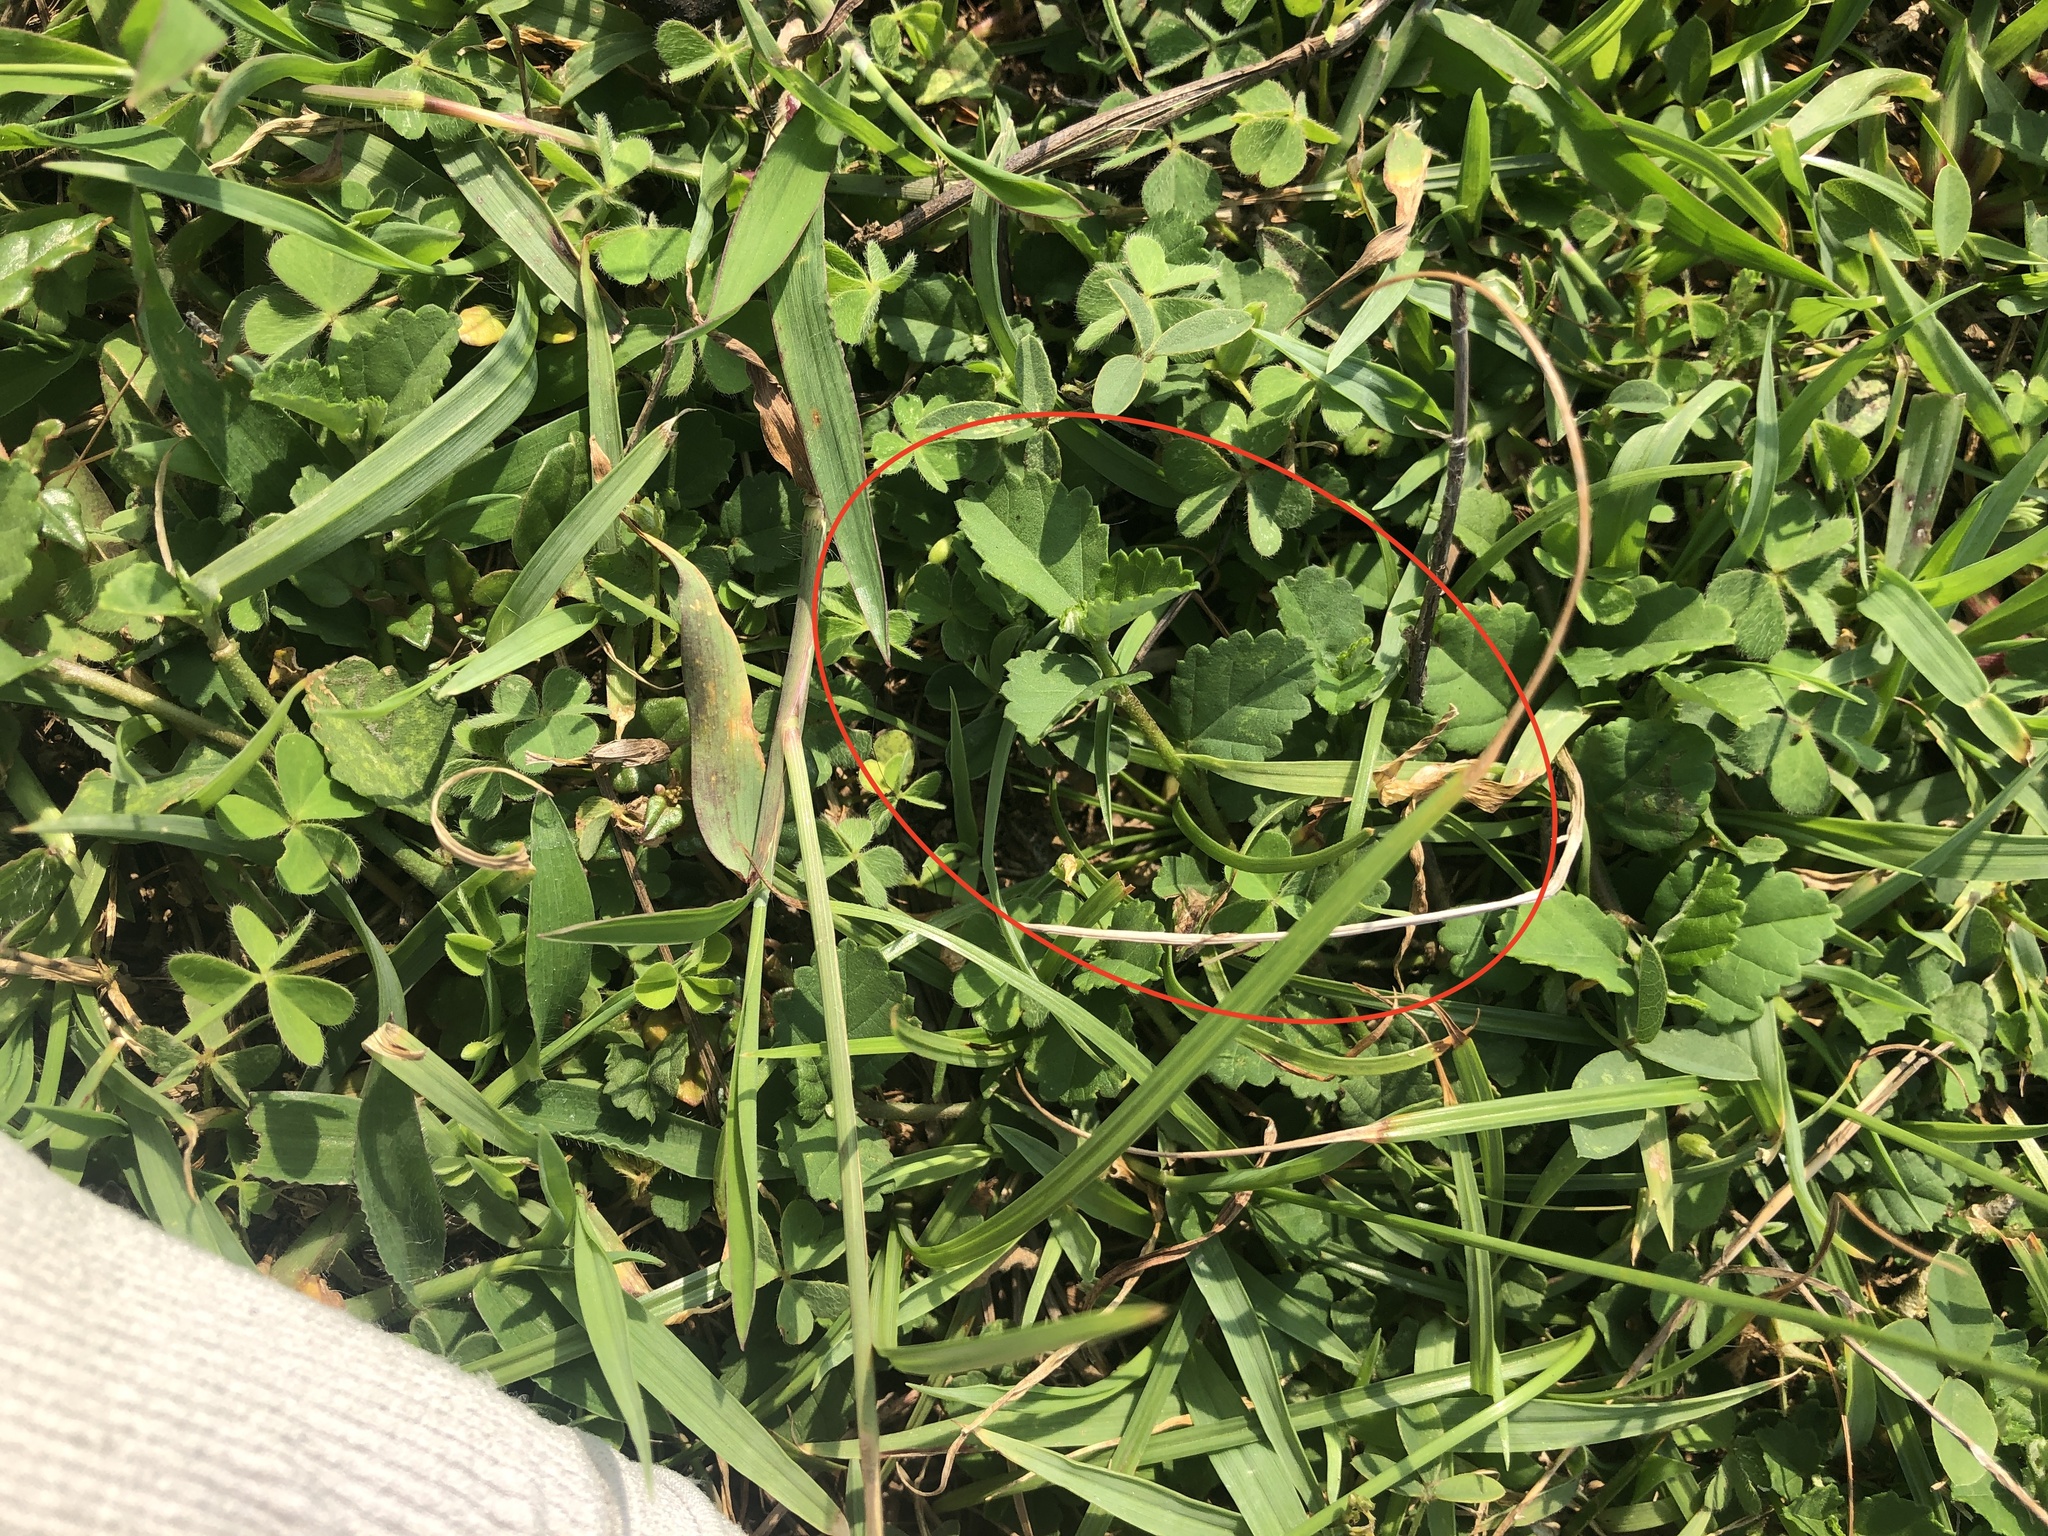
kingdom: Plantae
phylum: Tracheophyta
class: Magnoliopsida
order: Malvales
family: Malvaceae
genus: Sida
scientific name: Sida rhombifolia
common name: Queensland-hemp
